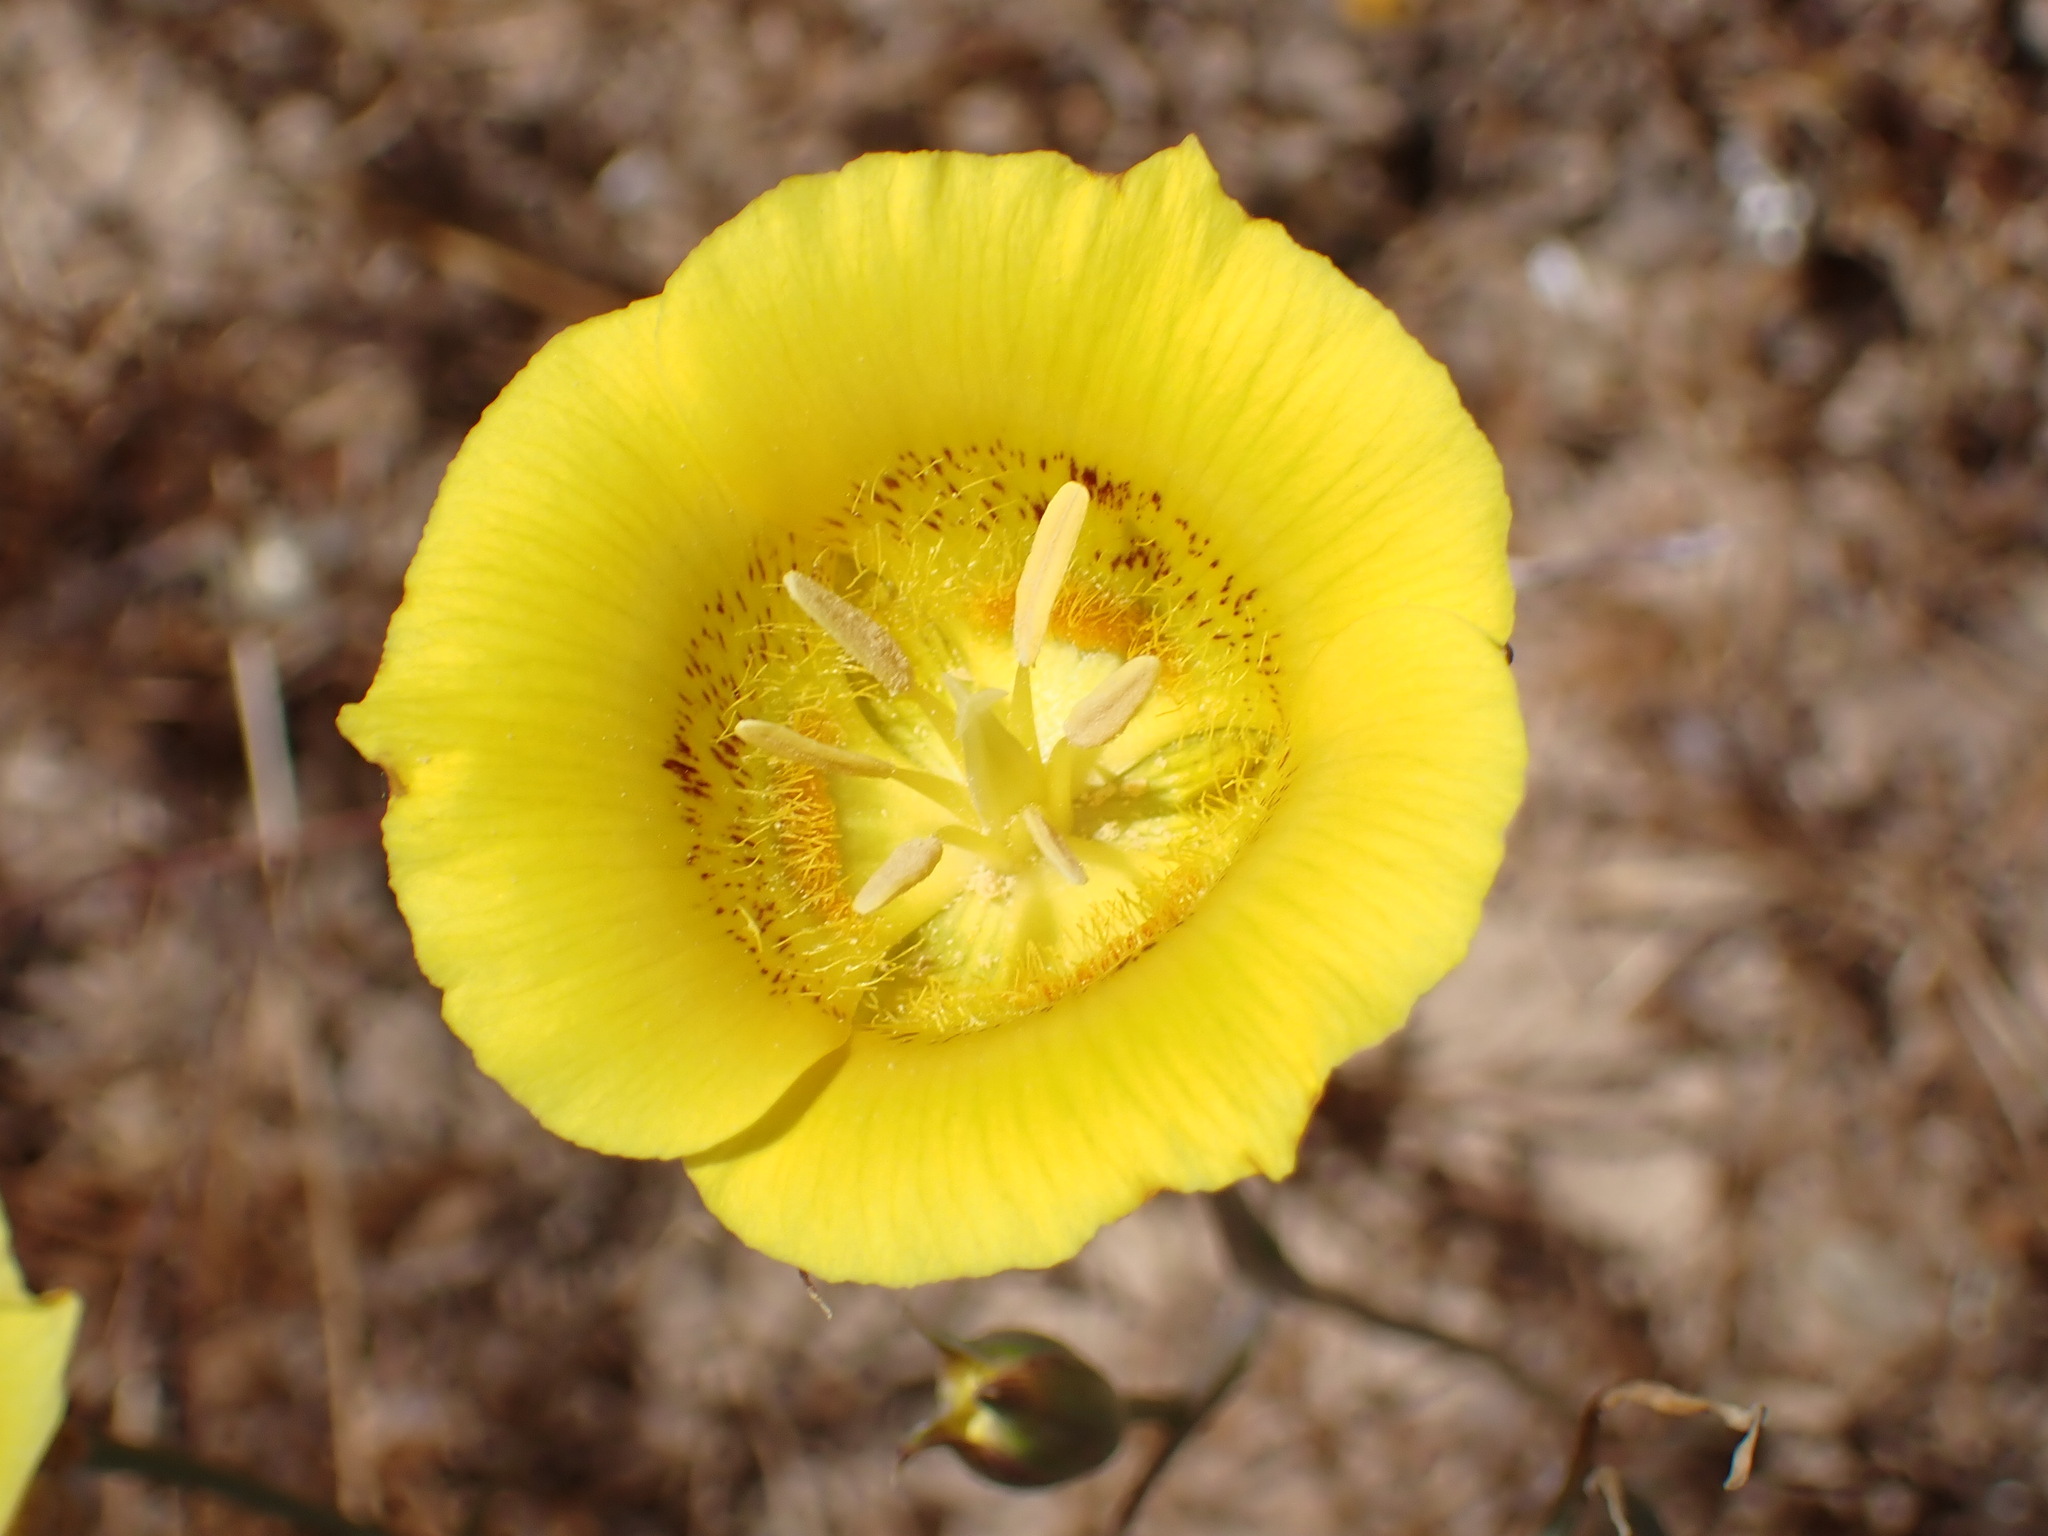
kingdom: Plantae
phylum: Tracheophyta
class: Liliopsida
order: Liliales
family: Liliaceae
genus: Calochortus
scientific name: Calochortus luteus
